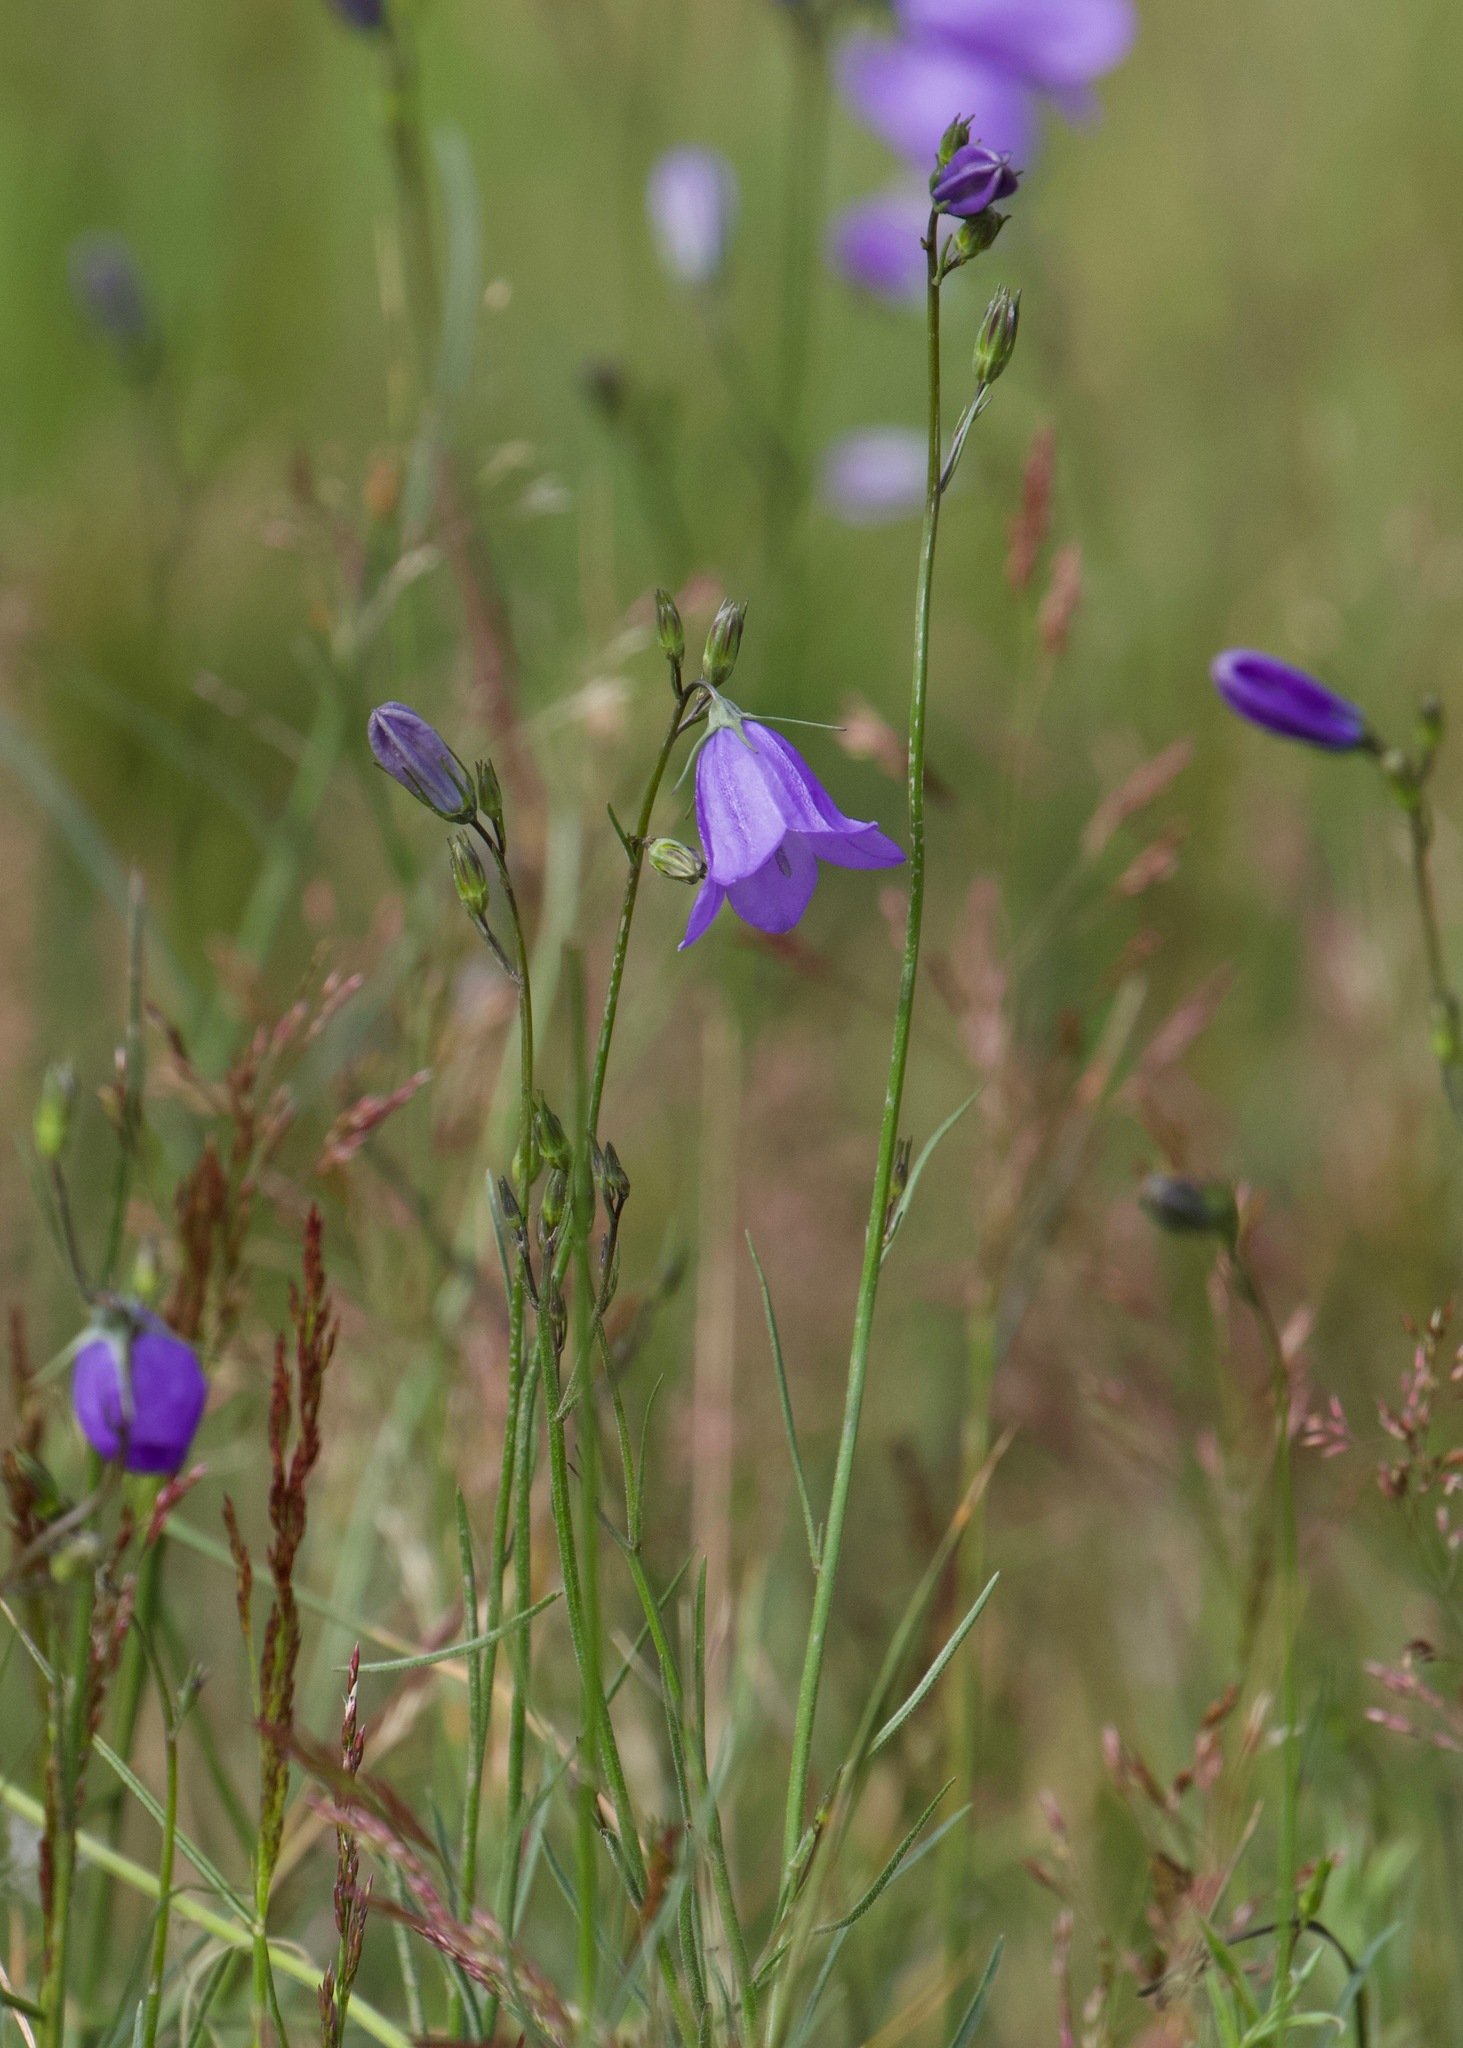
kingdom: Plantae
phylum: Tracheophyta
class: Magnoliopsida
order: Asterales
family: Campanulaceae
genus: Campanula
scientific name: Campanula rotundifolia
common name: Harebell
